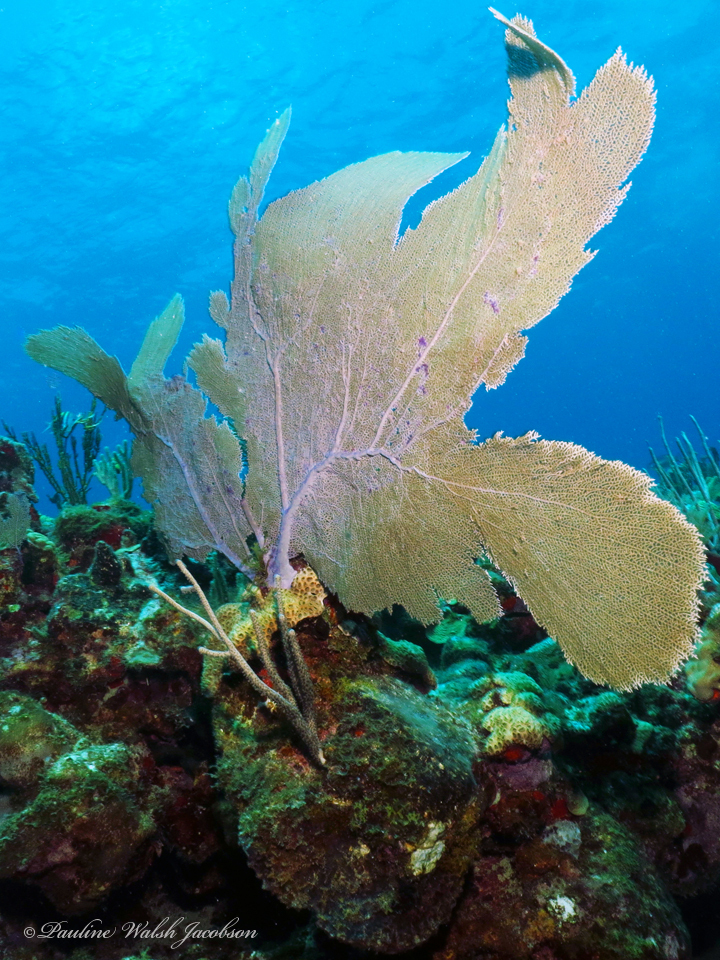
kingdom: Animalia
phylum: Cnidaria
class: Anthozoa
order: Malacalcyonacea
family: Gorgoniidae
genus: Gorgonia
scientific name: Gorgonia ventalina
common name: Common sea fan
